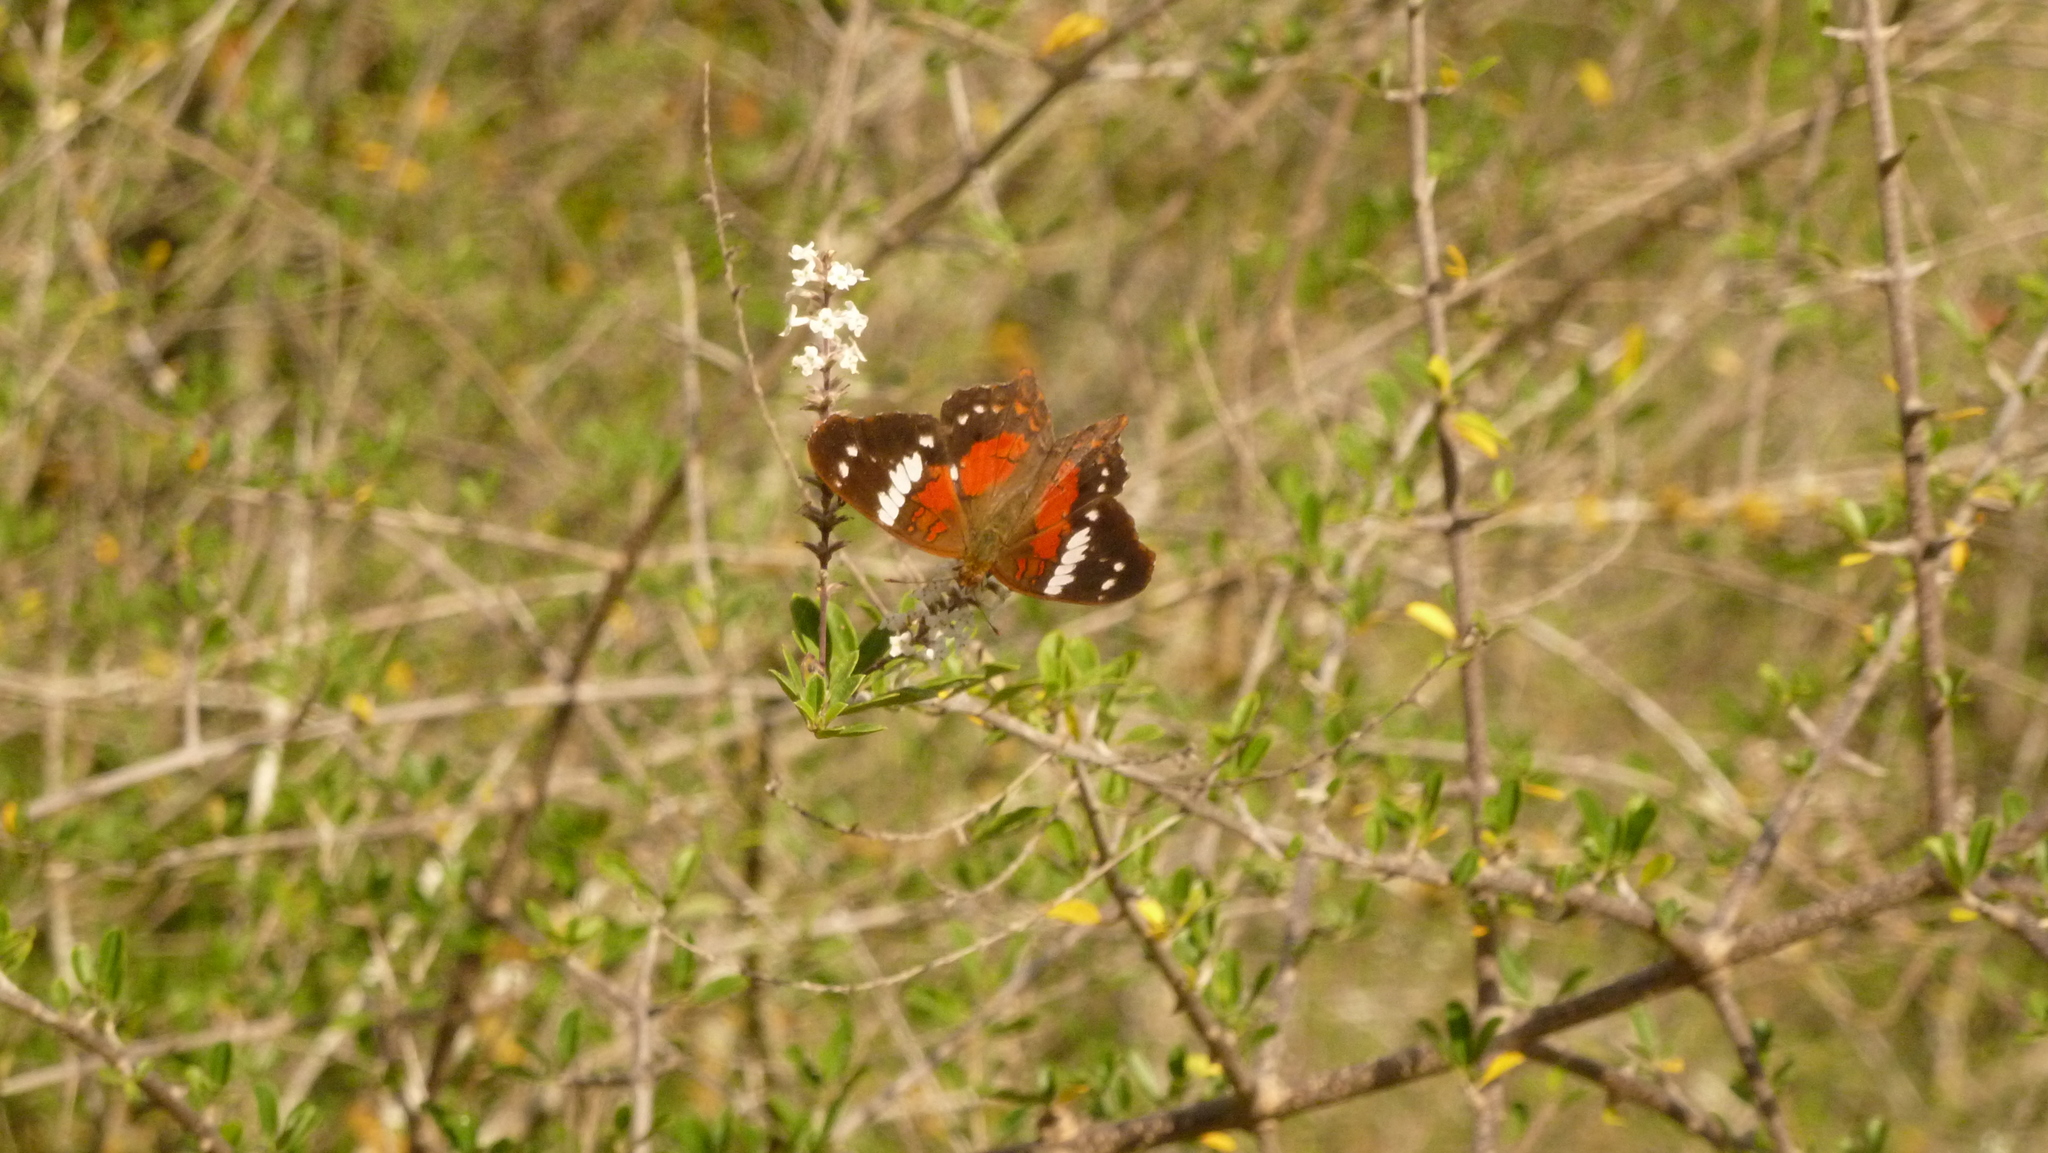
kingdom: Animalia
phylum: Arthropoda
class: Insecta
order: Lepidoptera
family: Nymphalidae
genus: Anartia
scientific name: Anartia amathea
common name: Red peacock
